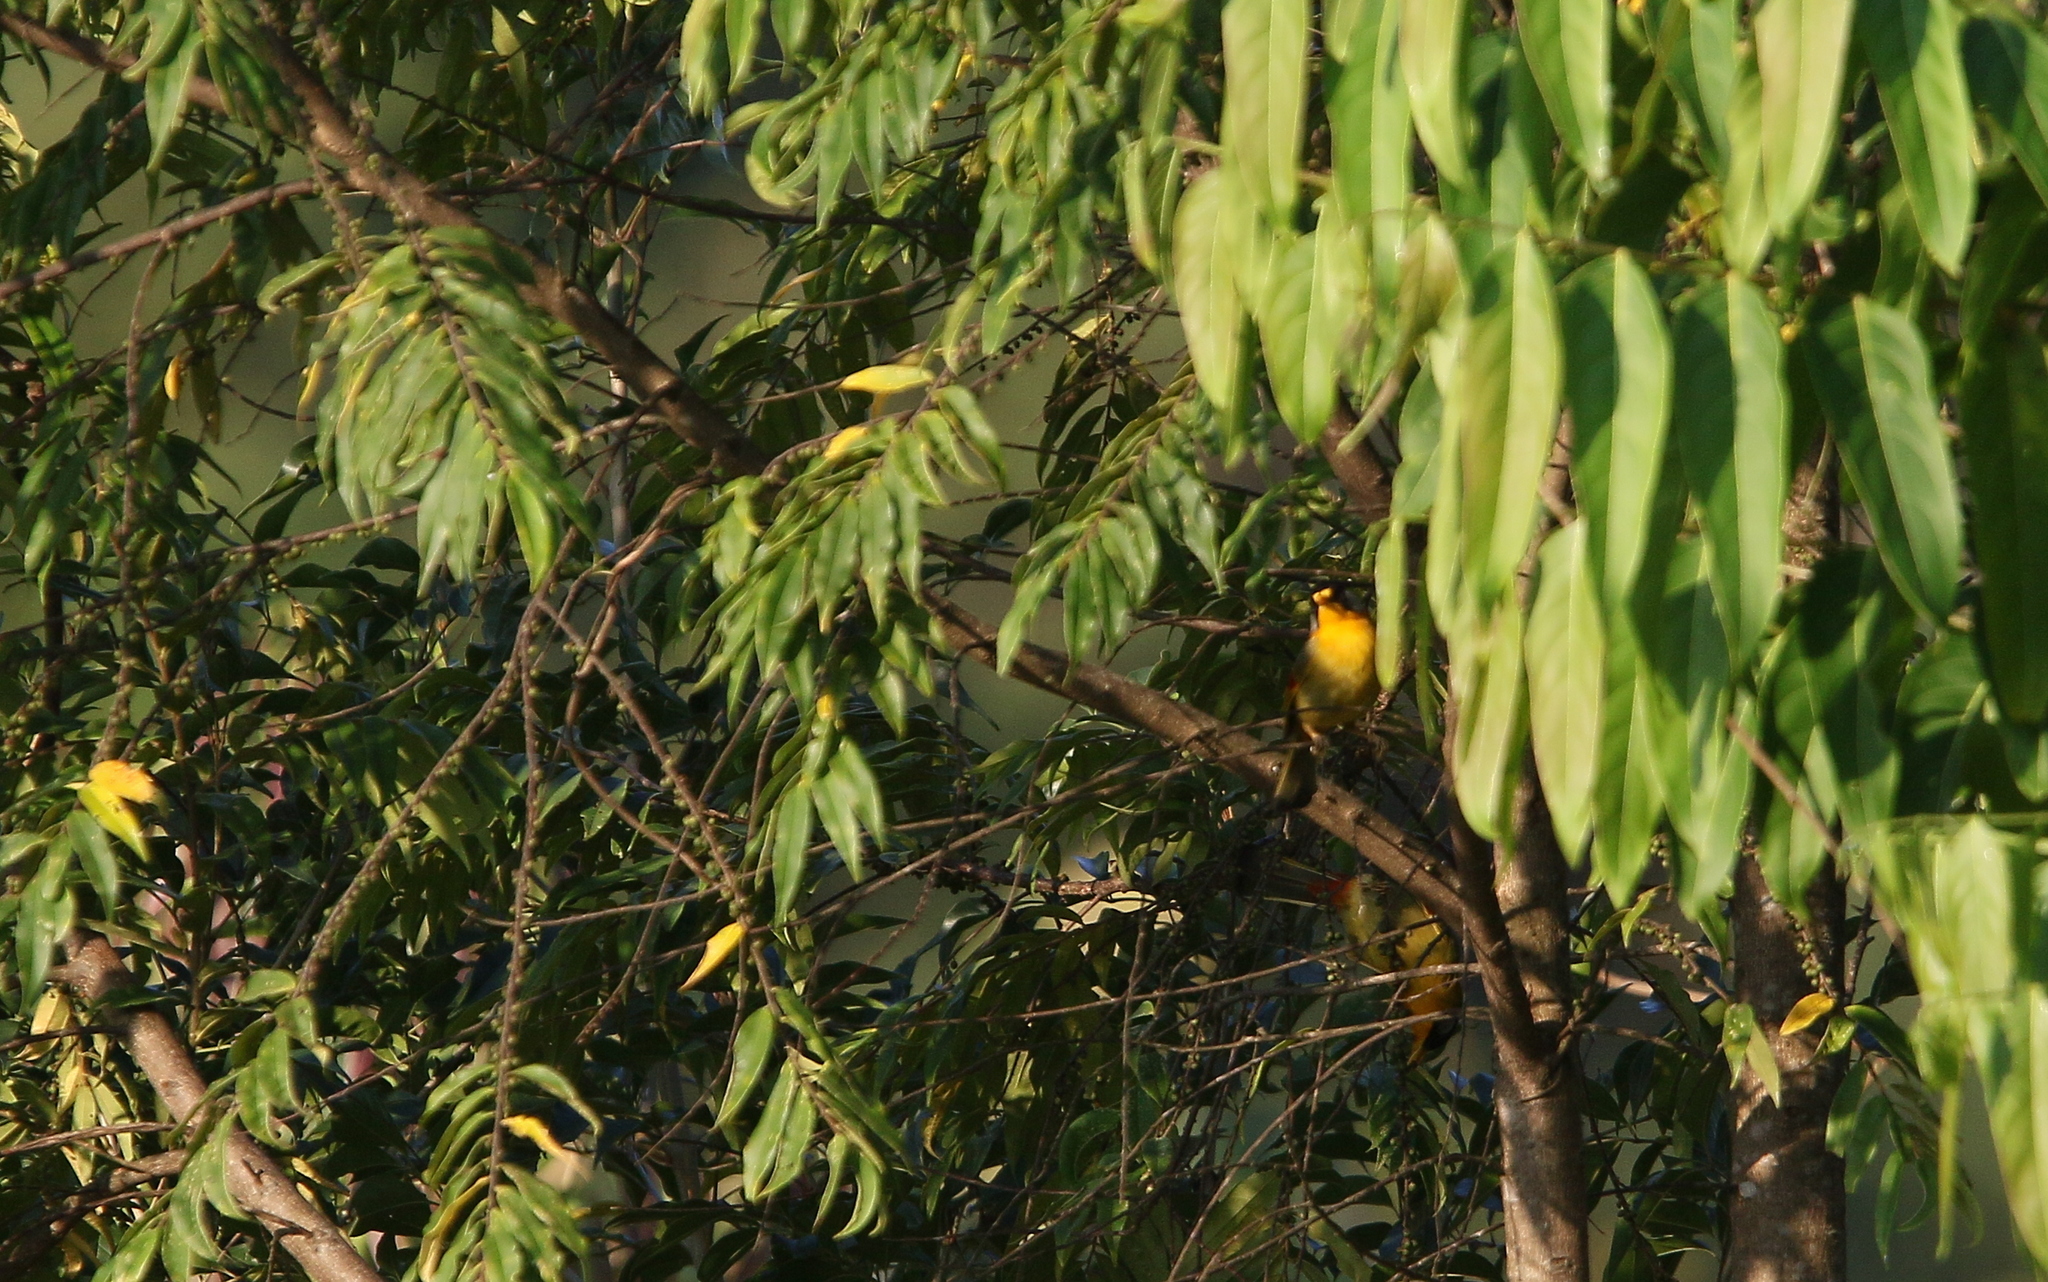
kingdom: Animalia
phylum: Chordata
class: Aves
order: Passeriformes
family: Leiothrichidae
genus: Leiothrix
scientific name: Leiothrix argentauris
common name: Silver-eared mesia
